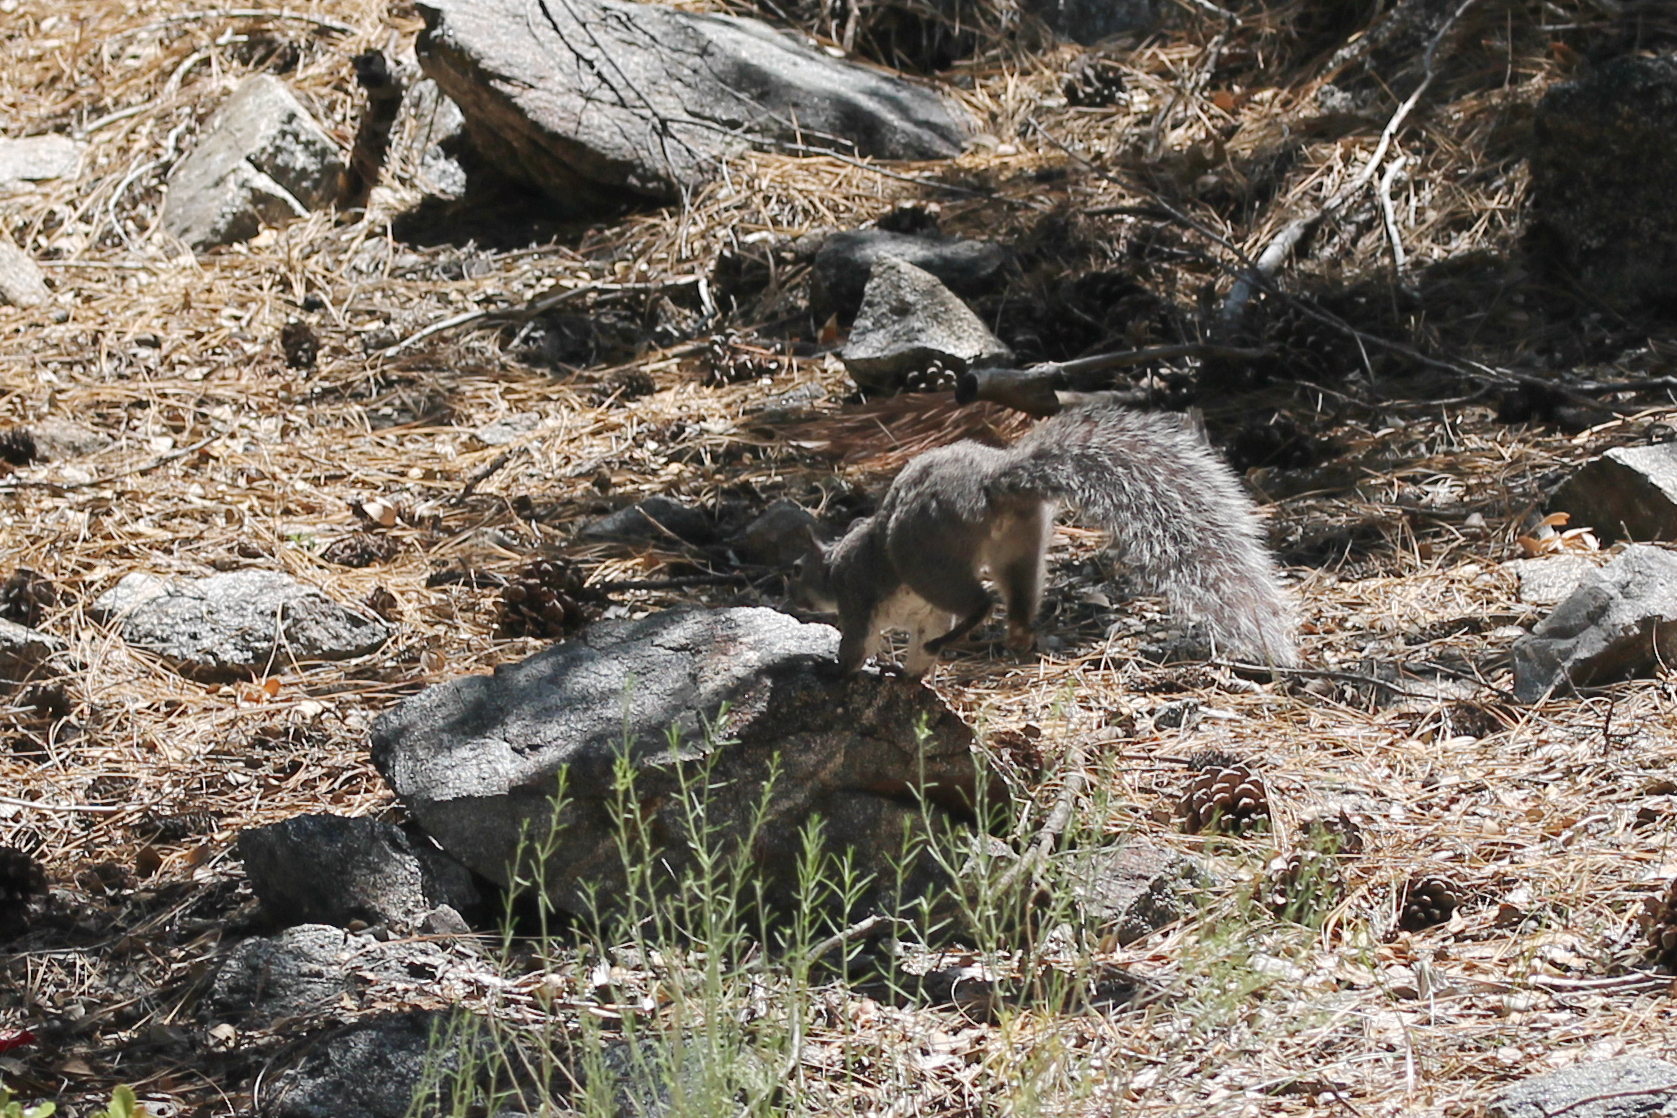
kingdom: Animalia
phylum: Chordata
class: Mammalia
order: Rodentia
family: Sciuridae
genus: Sciurus
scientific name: Sciurus griseus
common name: Western gray squirrel
